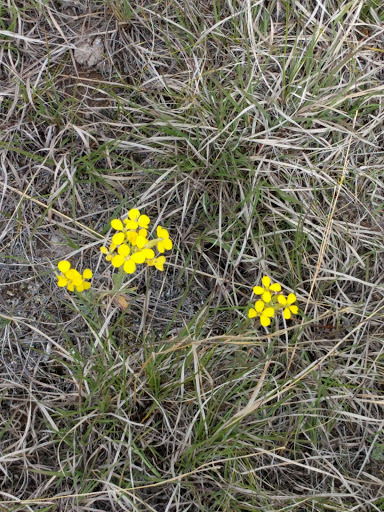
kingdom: Plantae
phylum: Tracheophyta
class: Magnoliopsida
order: Brassicales
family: Brassicaceae
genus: Erysimum
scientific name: Erysimum capitatum
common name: Western wallflower
